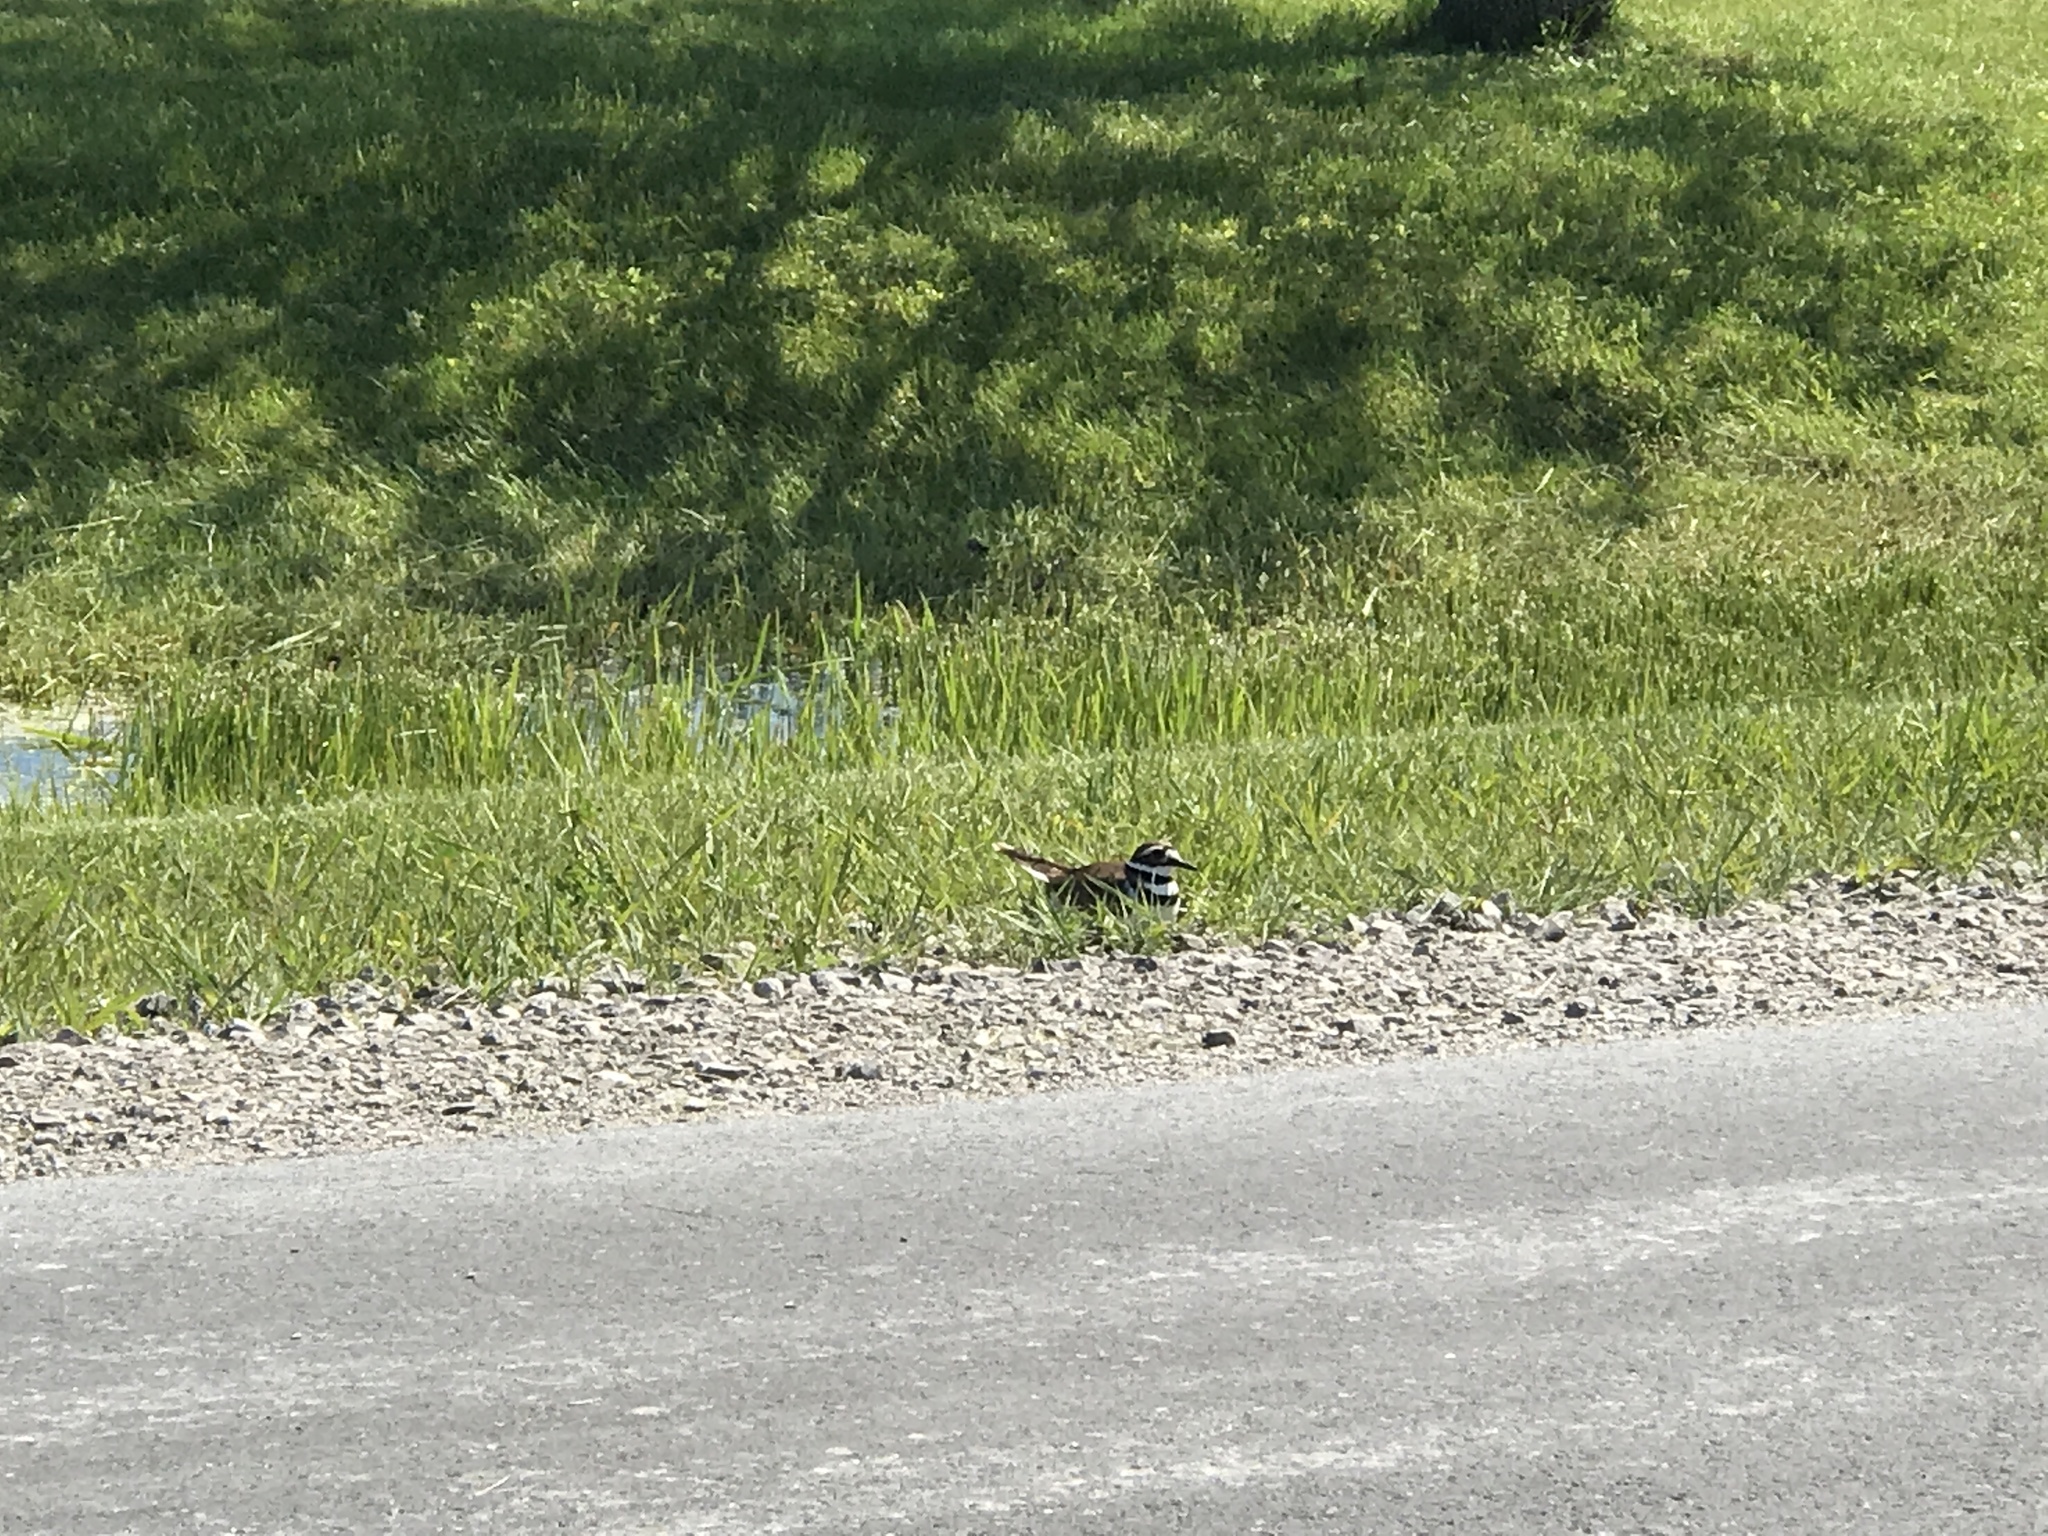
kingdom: Animalia
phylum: Chordata
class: Aves
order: Charadriiformes
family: Charadriidae
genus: Charadrius
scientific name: Charadrius vociferus
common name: Killdeer
